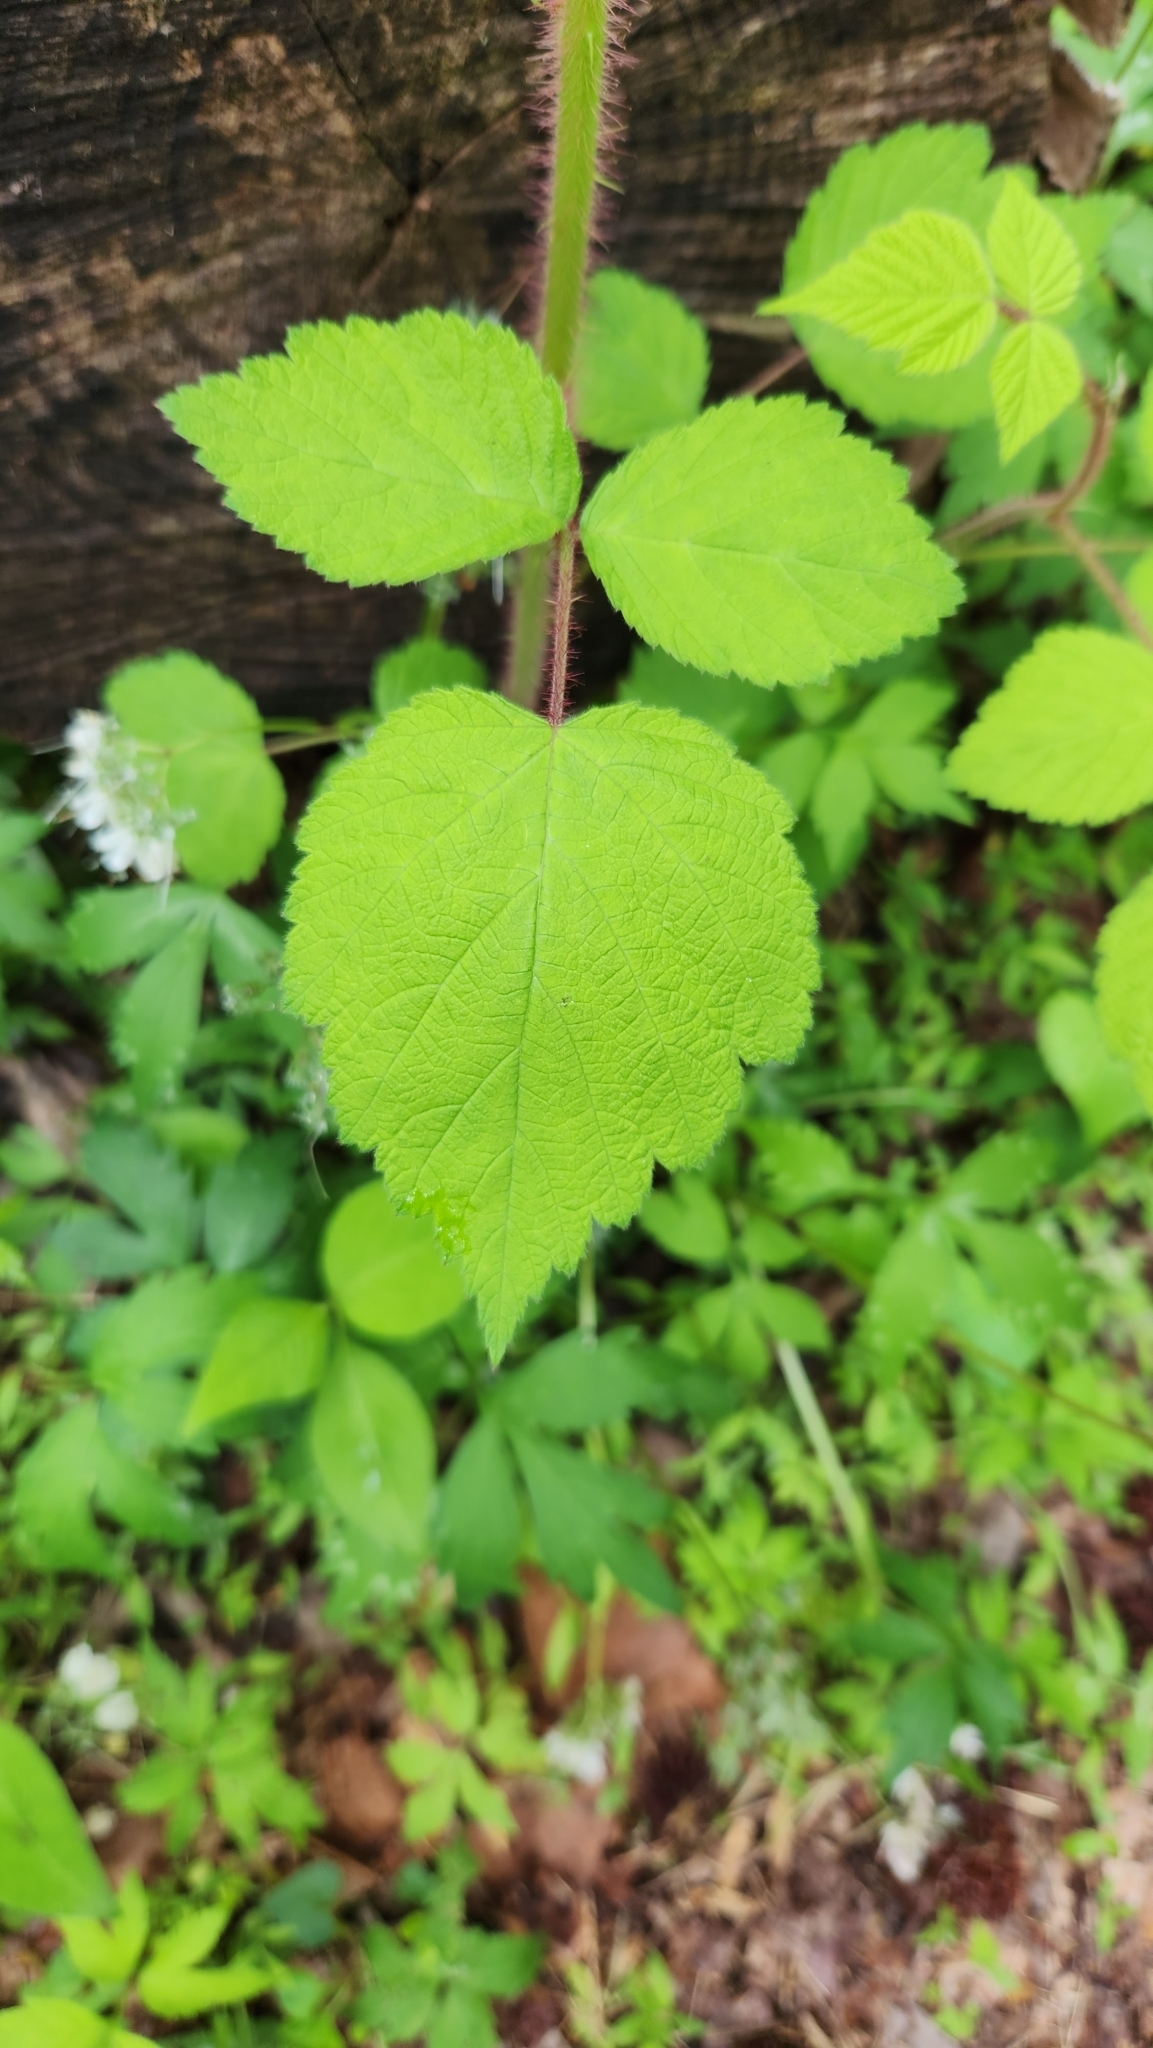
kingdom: Plantae
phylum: Tracheophyta
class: Magnoliopsida
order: Rosales
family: Rosaceae
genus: Rubus
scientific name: Rubus phoenicolasius
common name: Japanese wineberry
